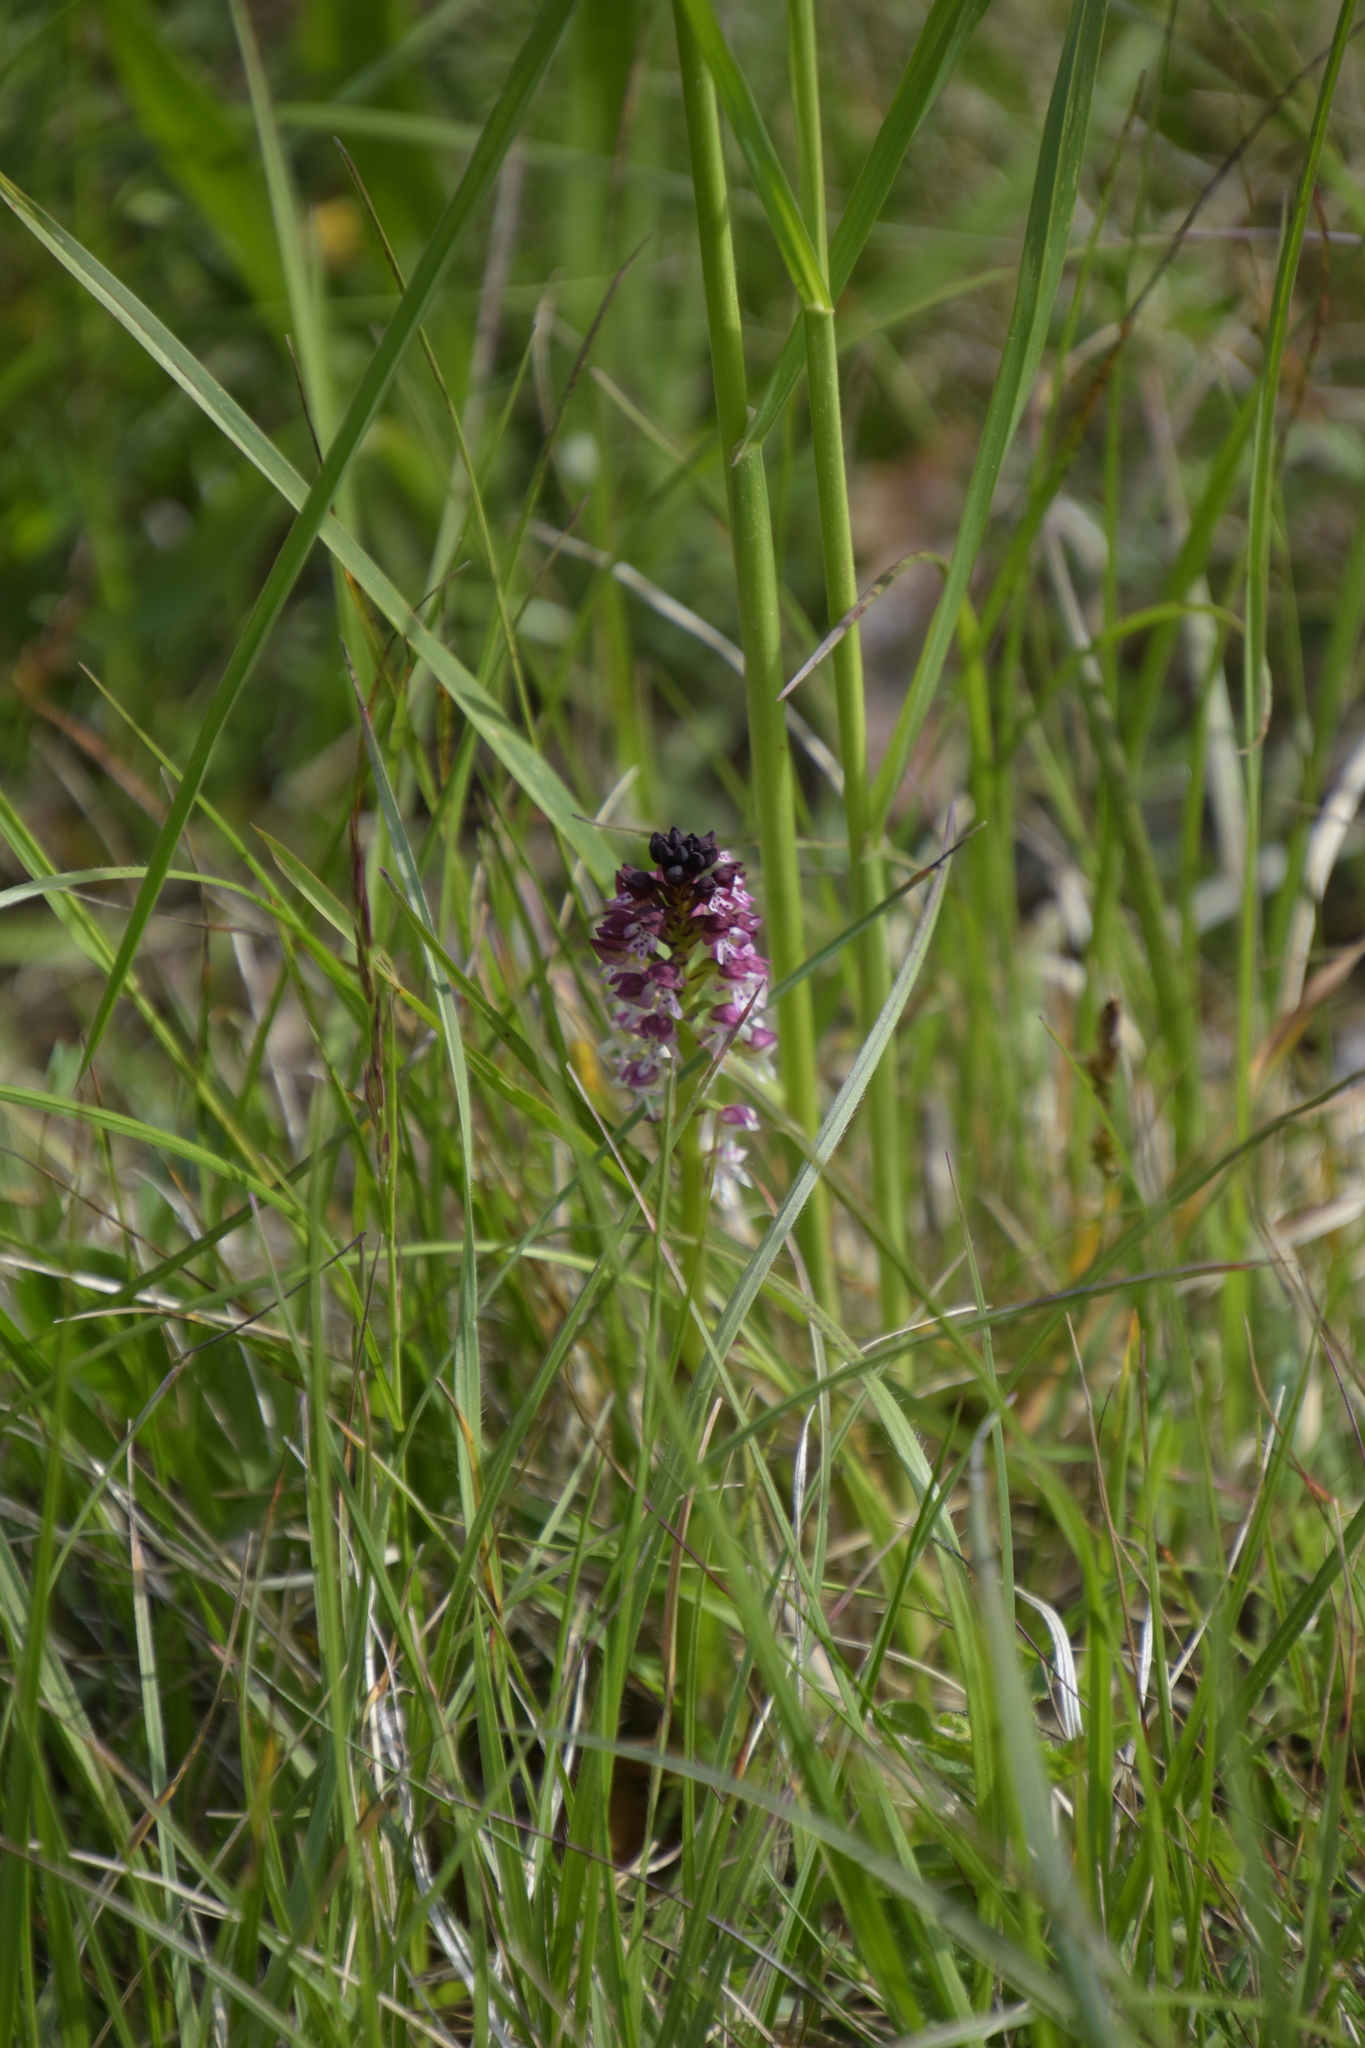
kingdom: Plantae
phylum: Tracheophyta
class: Liliopsida
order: Asparagales
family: Orchidaceae
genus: Neotinea
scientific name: Neotinea ustulata
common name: Burnt orchid
